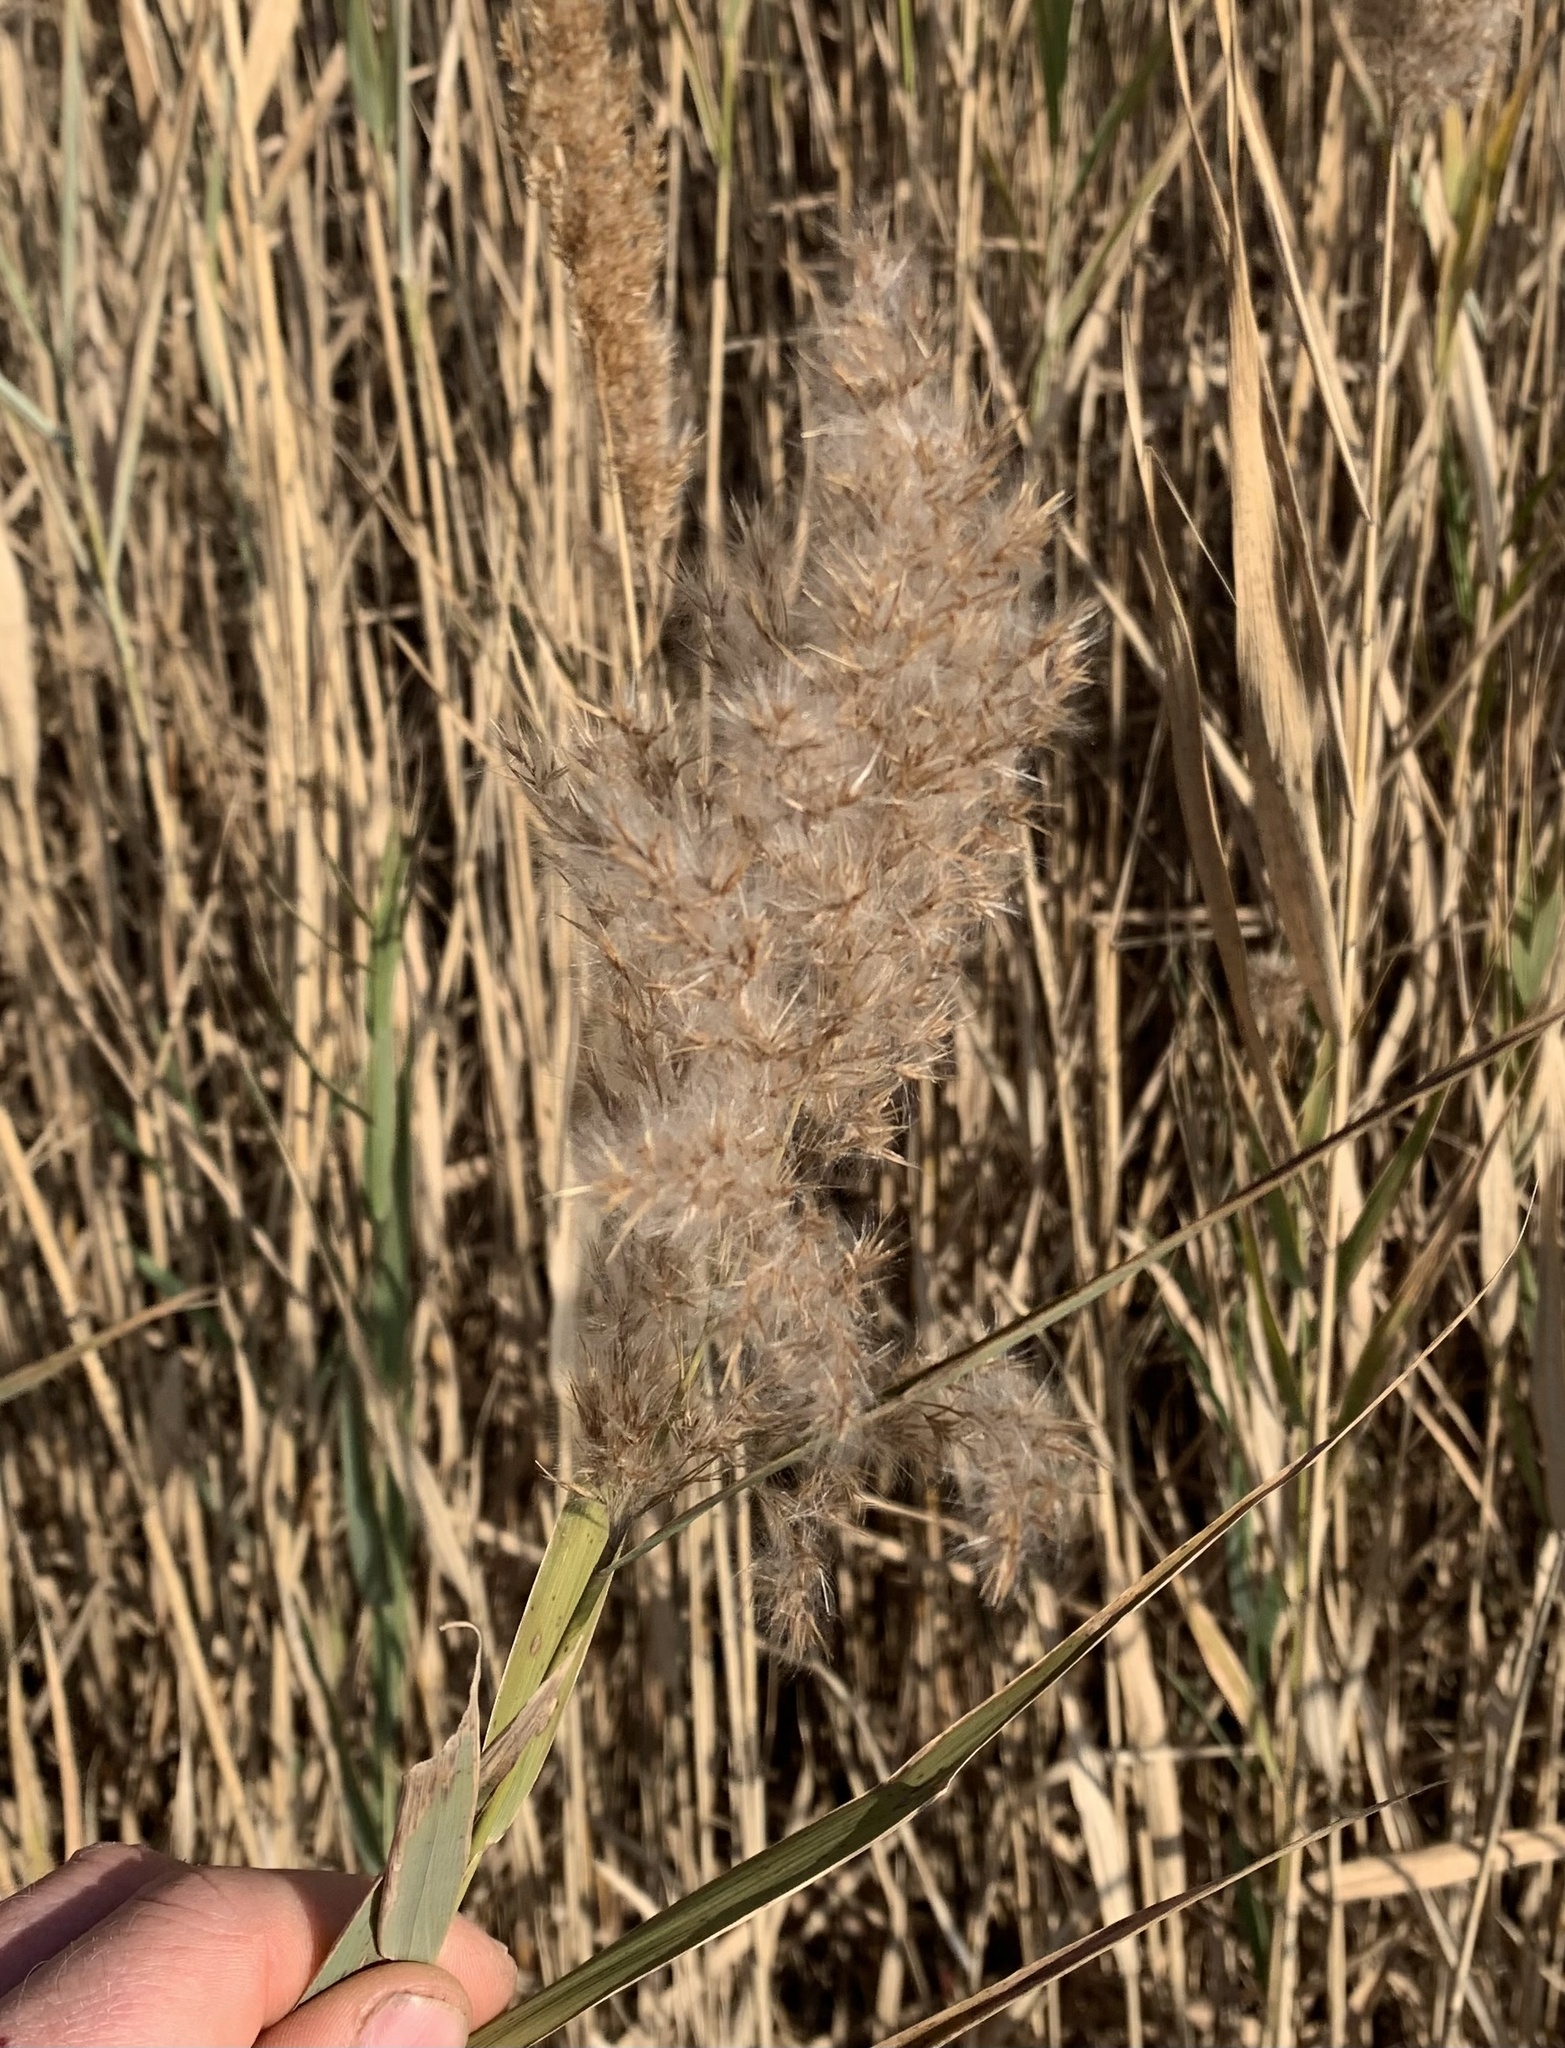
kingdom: Plantae
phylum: Tracheophyta
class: Liliopsida
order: Poales
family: Poaceae
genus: Phragmites
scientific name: Phragmites australis
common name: Common reed
